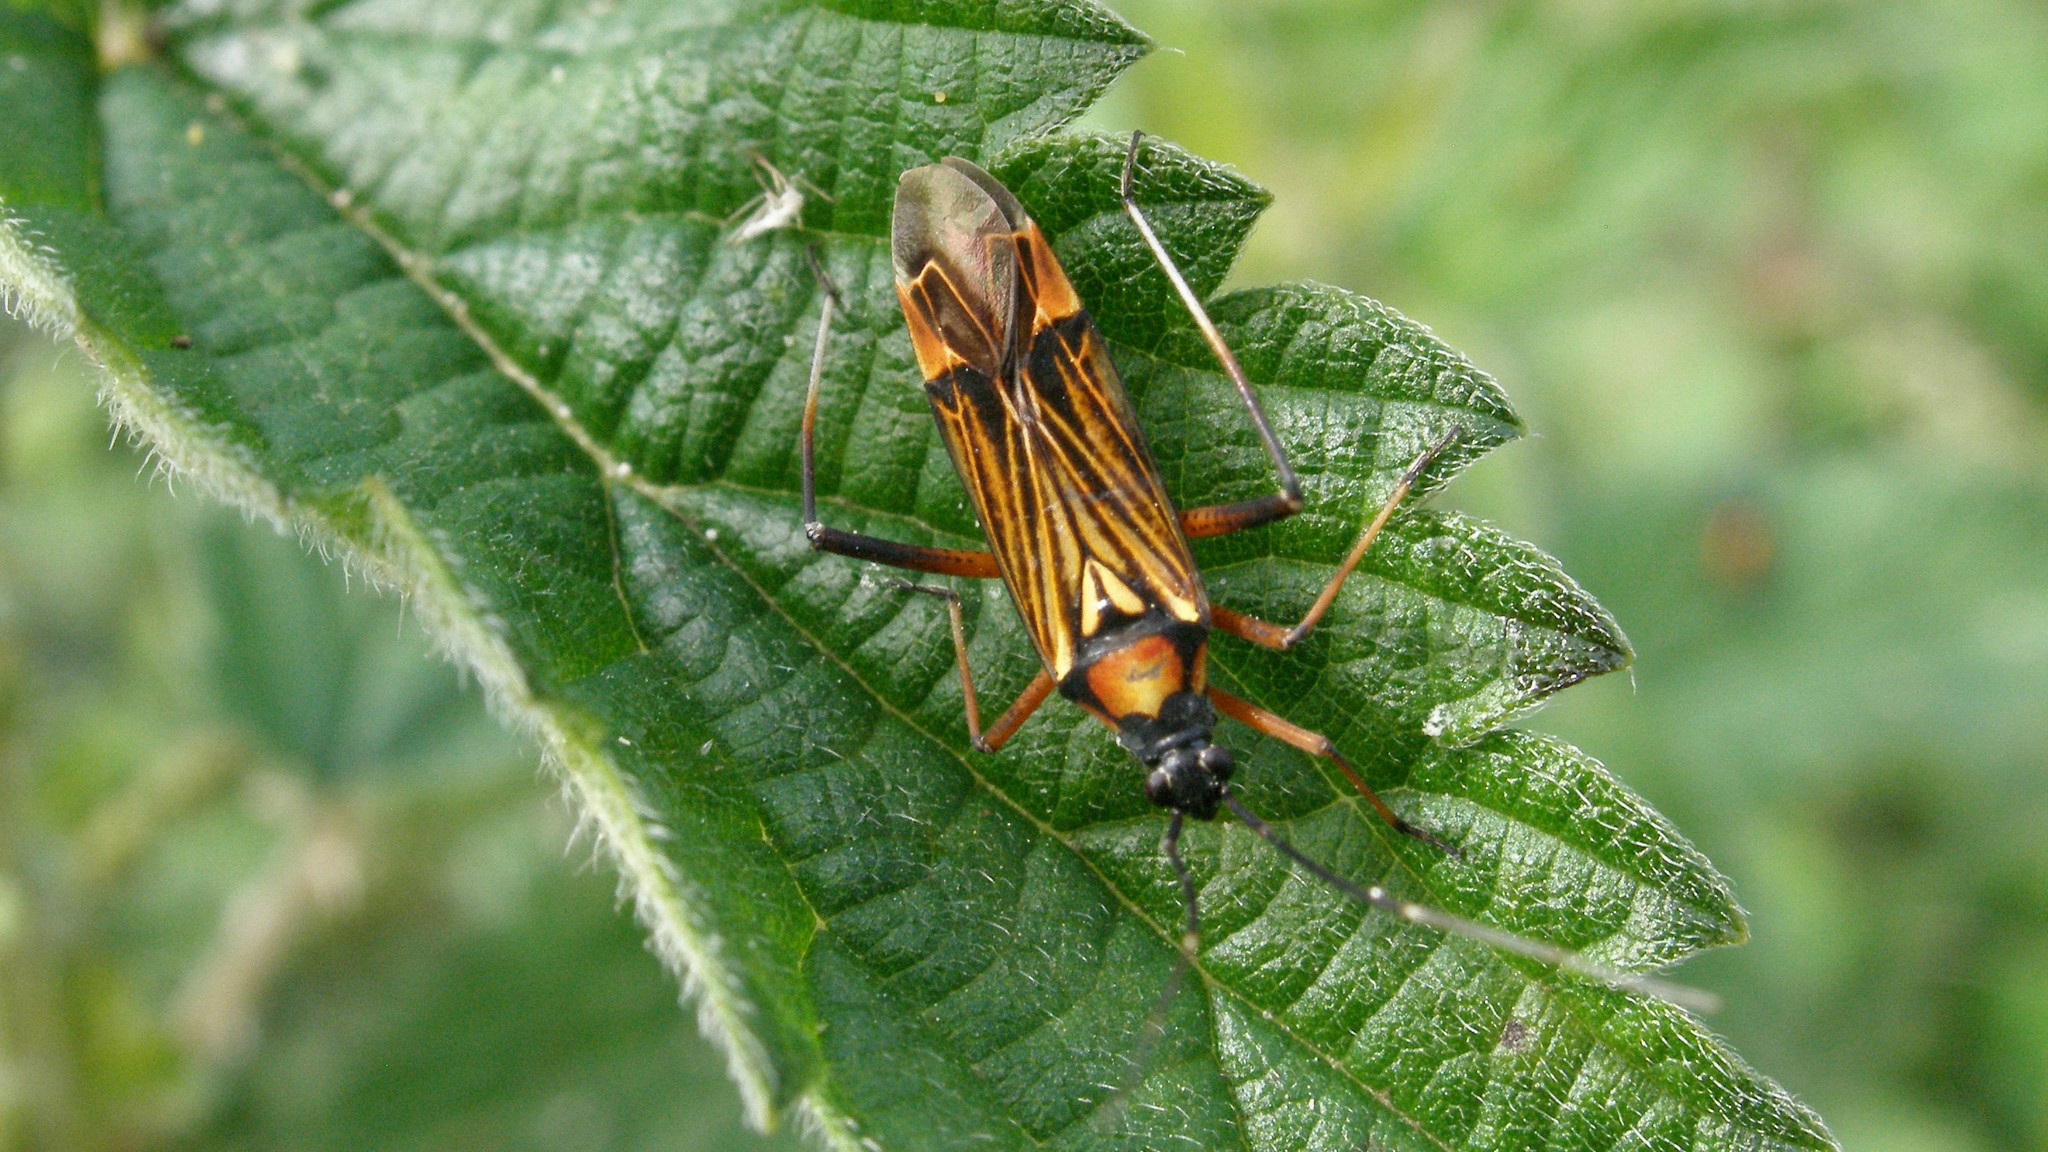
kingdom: Animalia
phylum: Arthropoda
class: Insecta
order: Hemiptera
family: Miridae
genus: Miris
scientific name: Miris striatus
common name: Fine streaked bugkin
